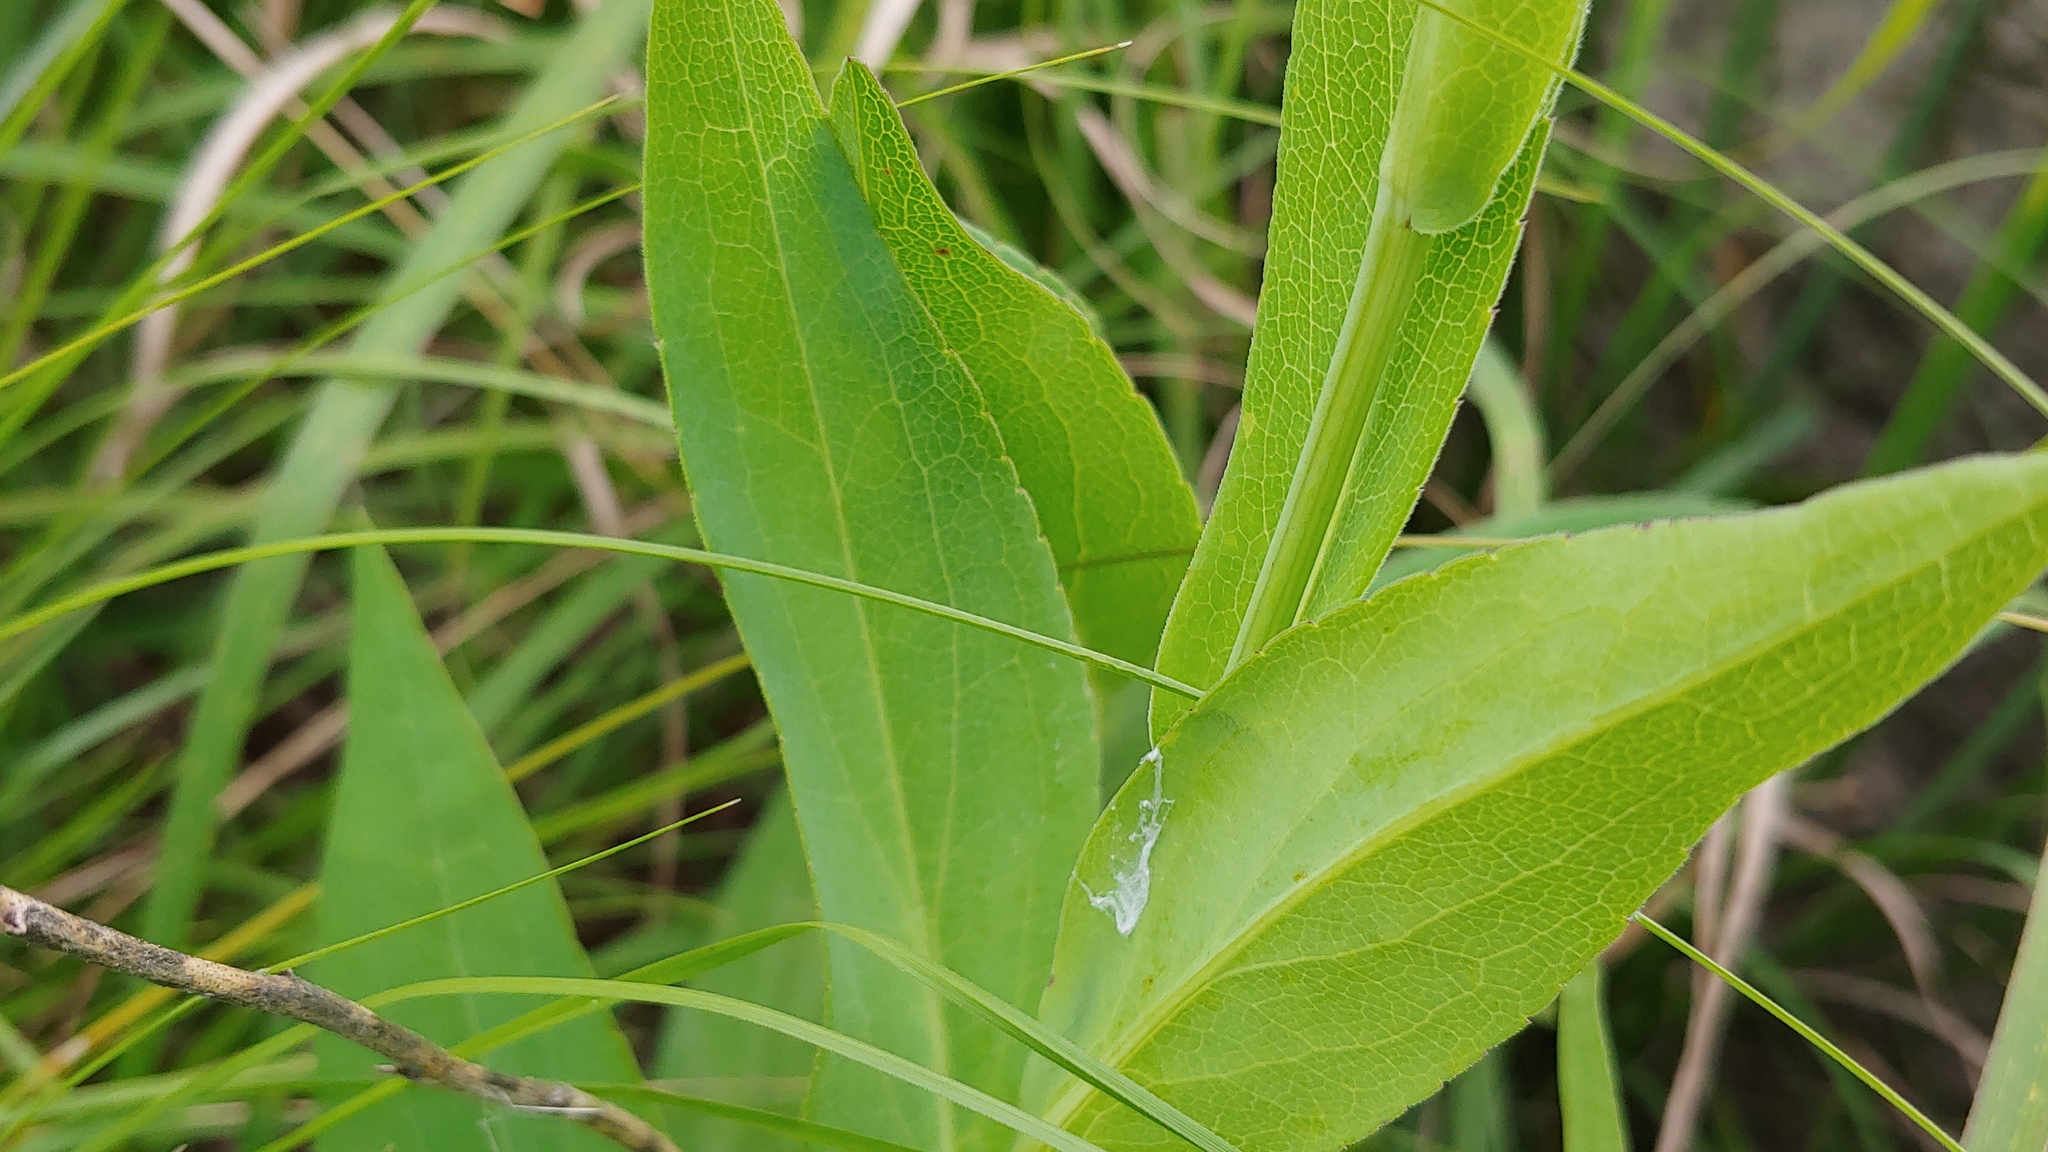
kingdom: Plantae
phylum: Tracheophyta
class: Magnoliopsida
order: Asterales
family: Asteraceae
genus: Symphyotrichum
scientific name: Symphyotrichum laeve
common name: Glaucous aster
